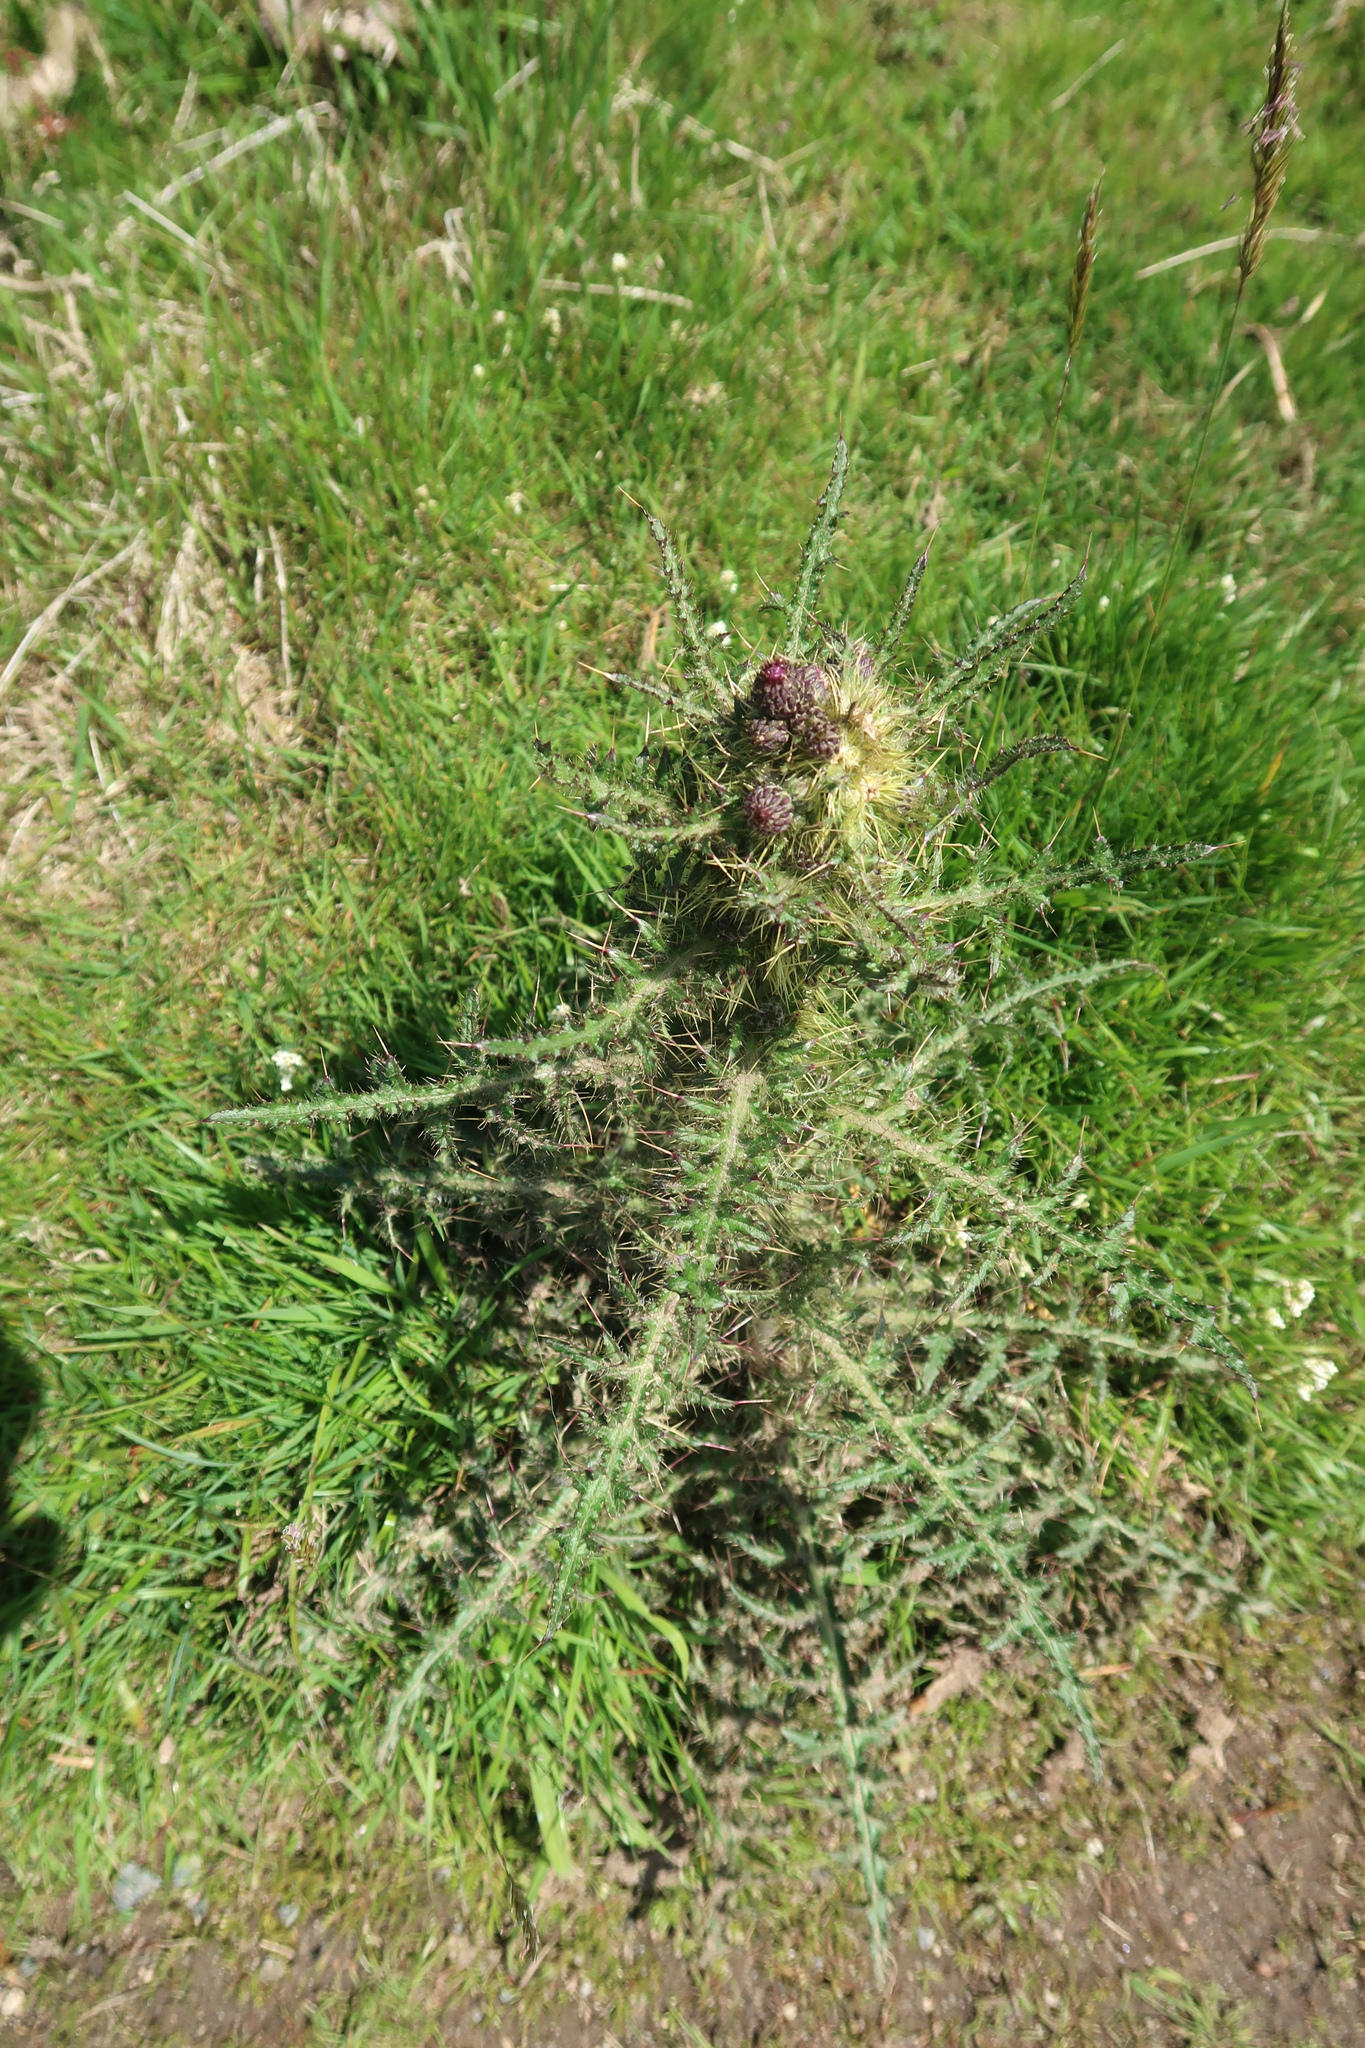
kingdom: Plantae
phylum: Tracheophyta
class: Magnoliopsida
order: Asterales
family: Asteraceae
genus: Cirsium
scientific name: Cirsium palustre
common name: Marsh thistle
